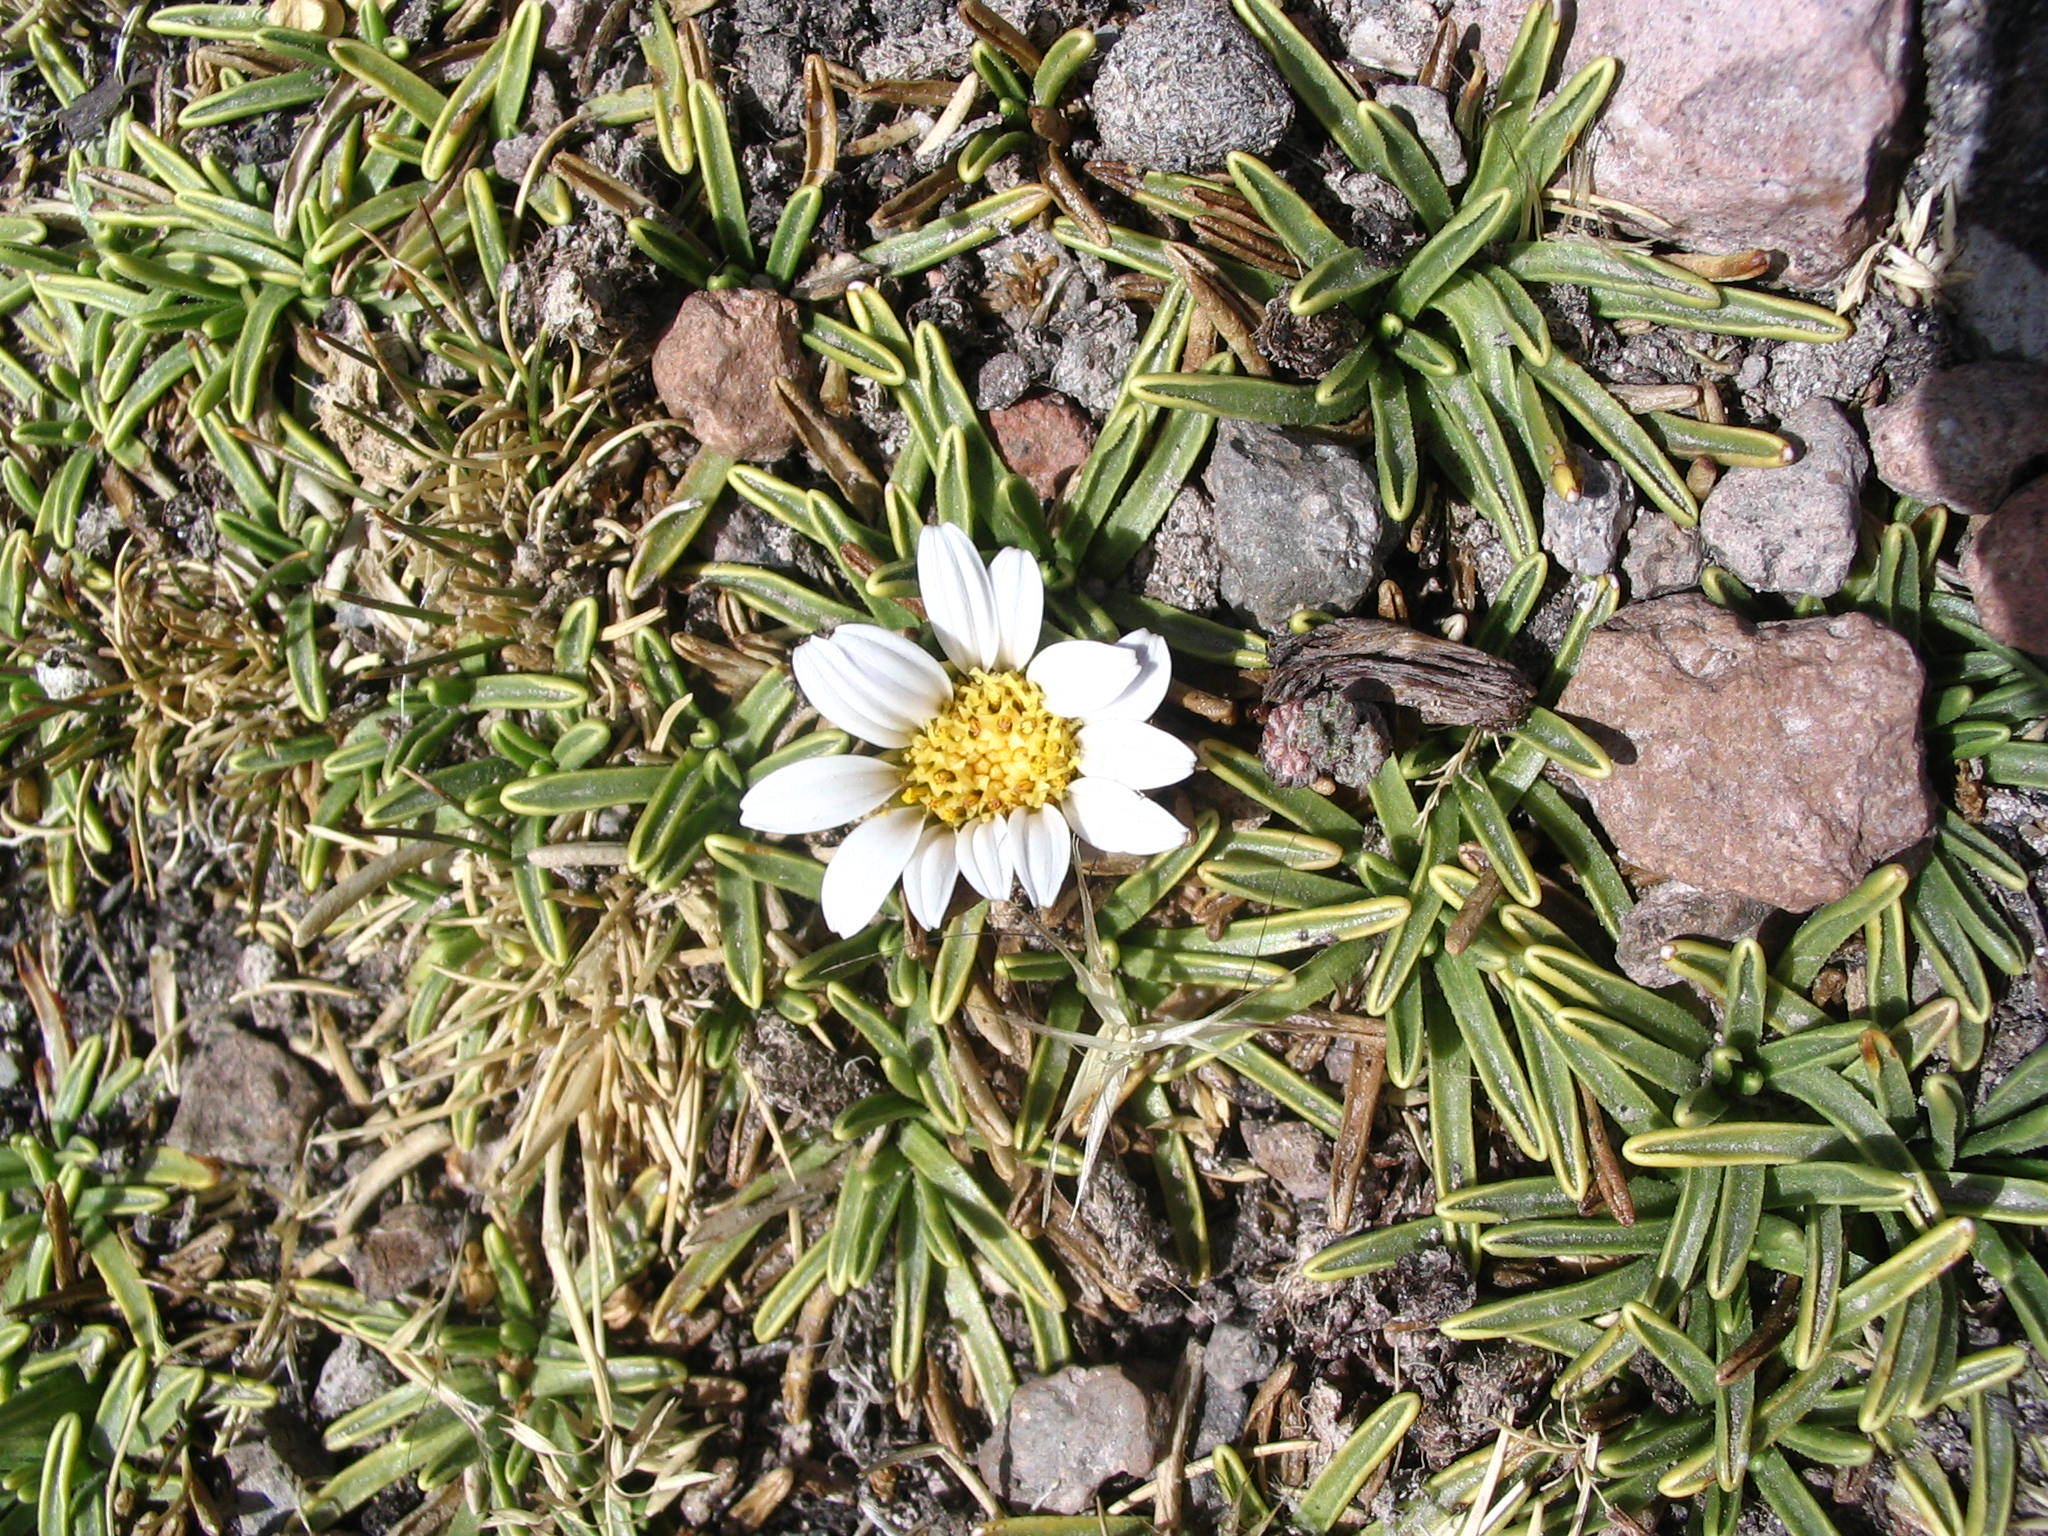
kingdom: Plantae
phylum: Tracheophyta
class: Magnoliopsida
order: Asterales
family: Asteraceae
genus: Rockhausenia
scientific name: Rockhausenia glaberrima
